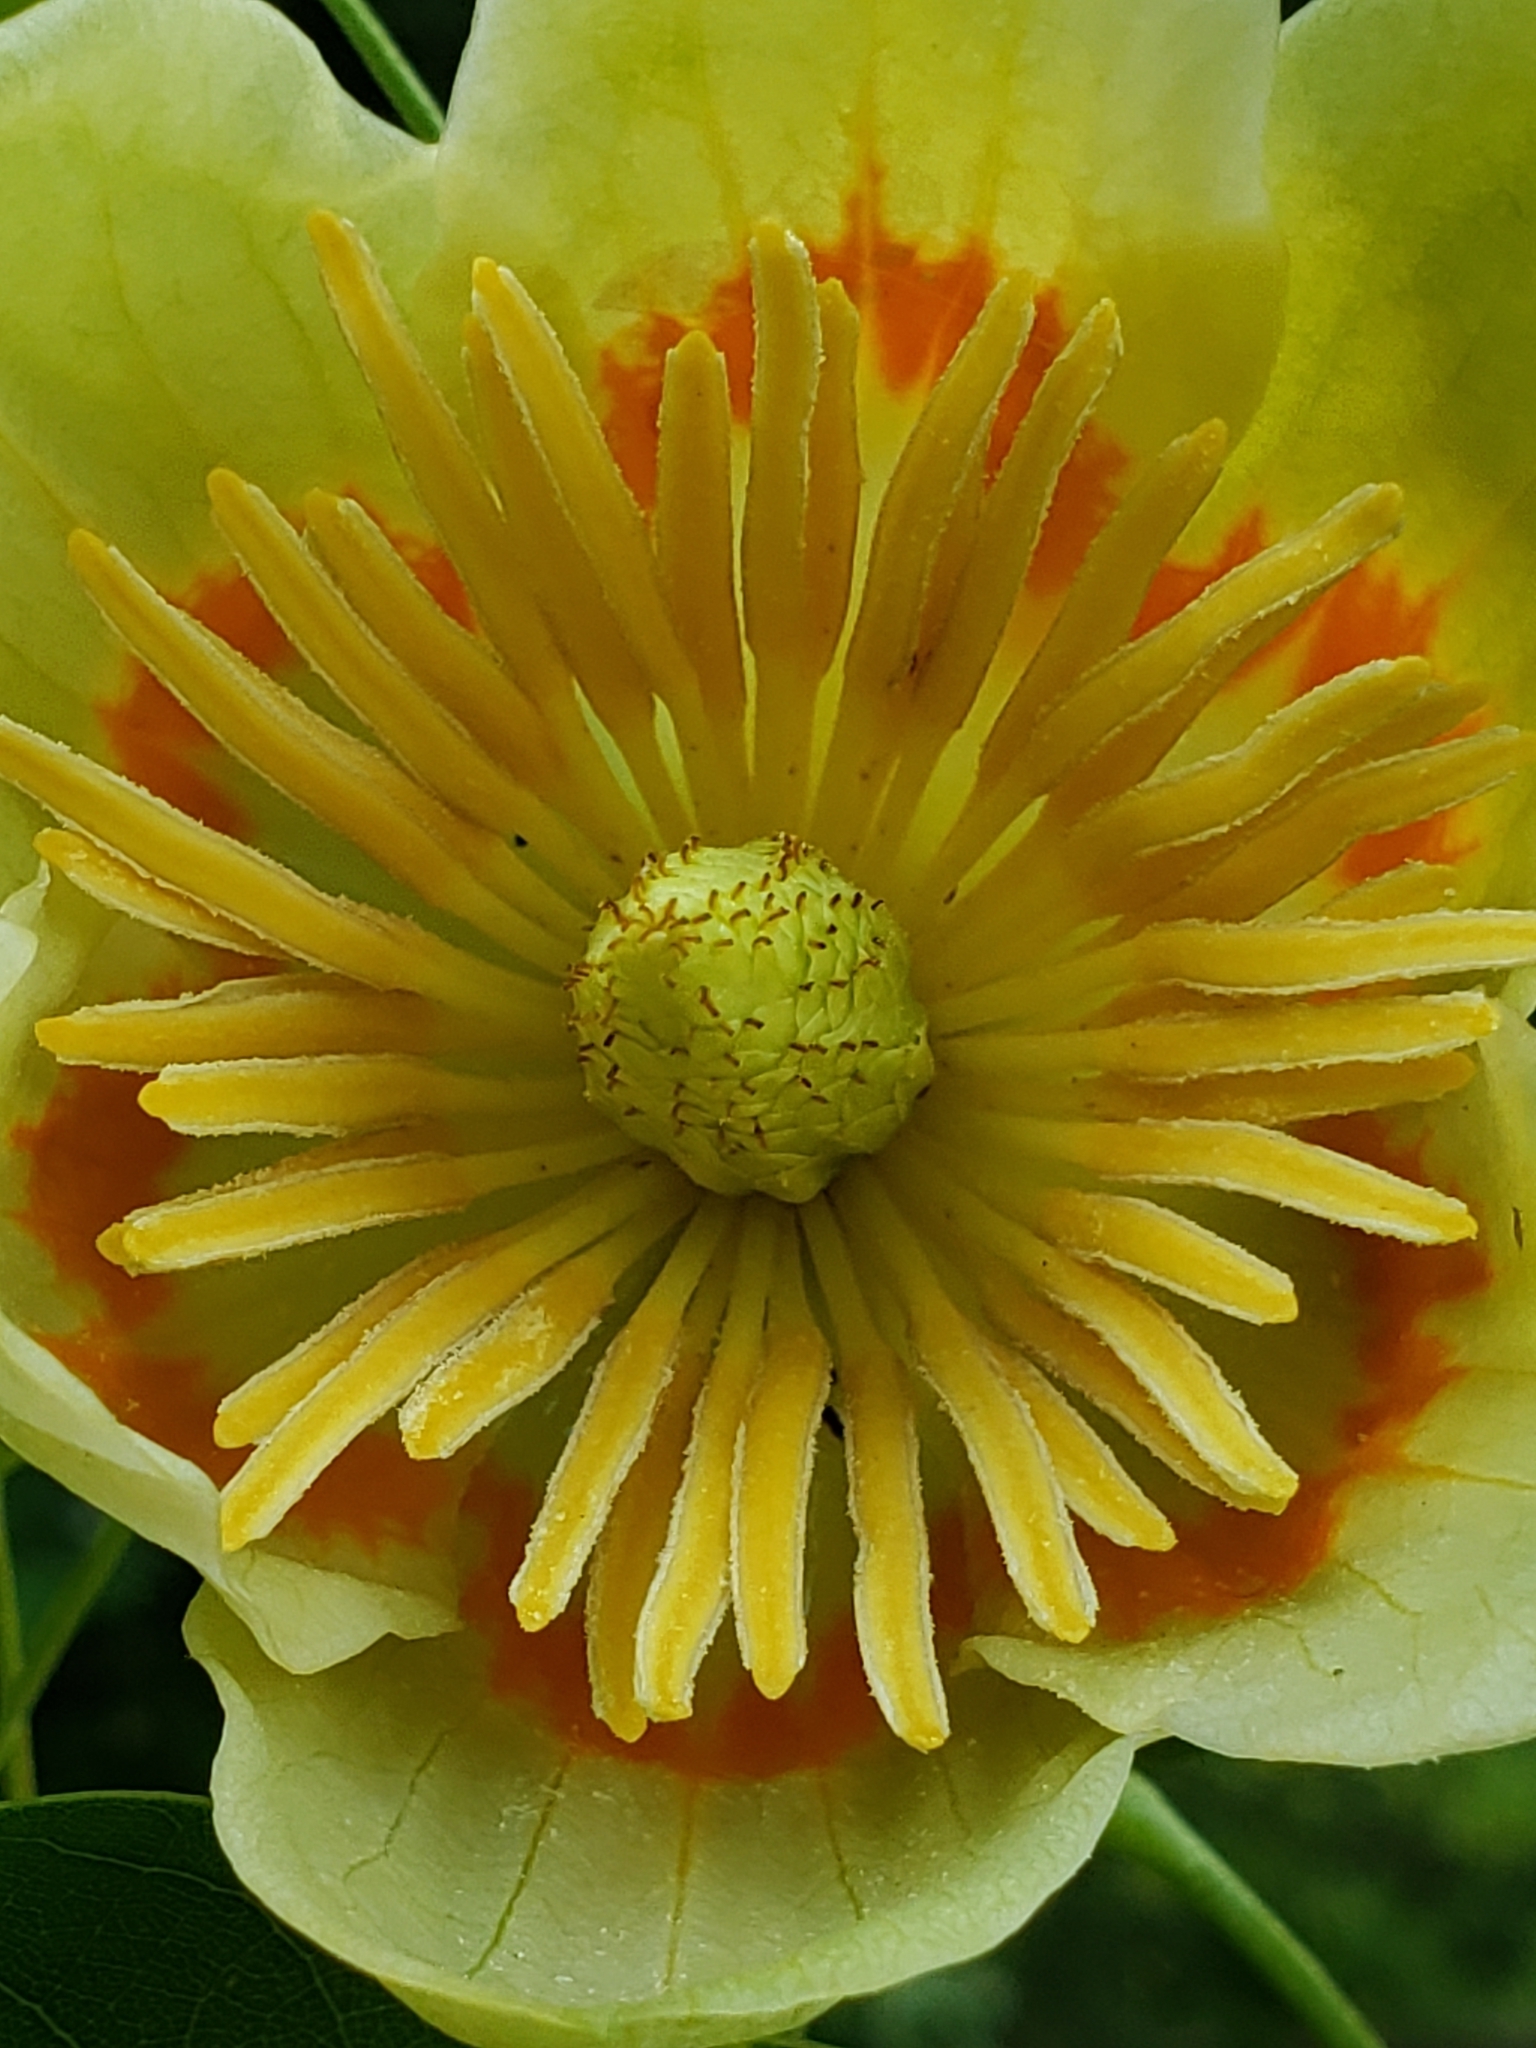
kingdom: Plantae
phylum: Tracheophyta
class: Magnoliopsida
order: Magnoliales
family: Magnoliaceae
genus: Liriodendron
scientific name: Liriodendron tulipifera
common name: Tulip tree
